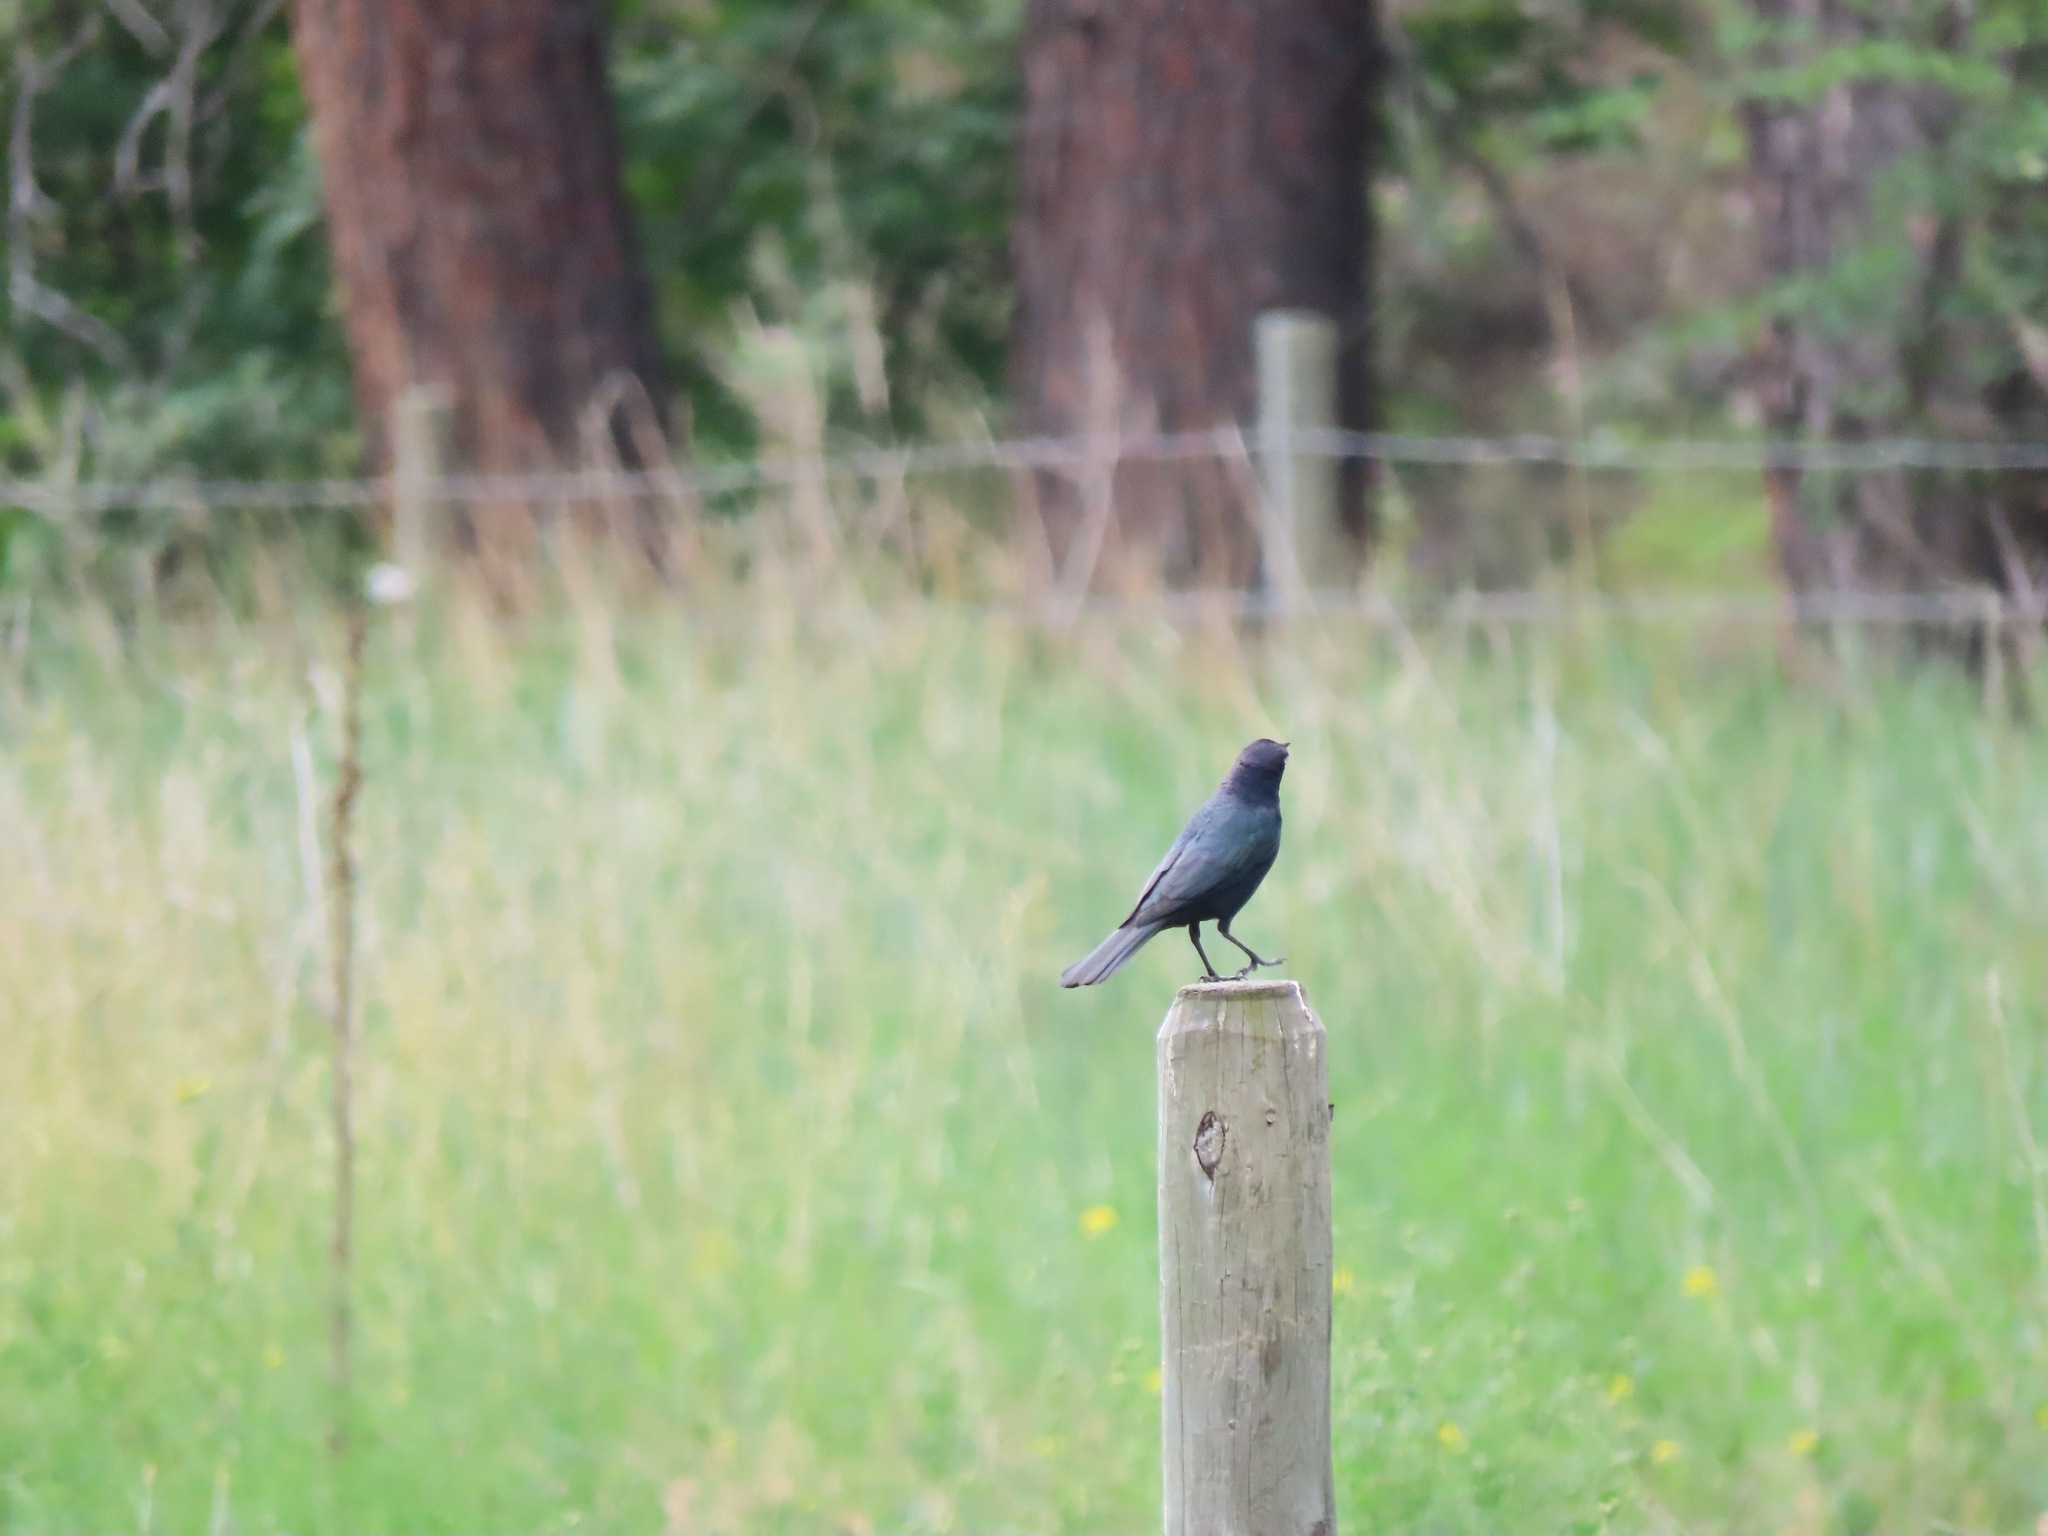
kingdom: Animalia
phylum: Chordata
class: Aves
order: Passeriformes
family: Icteridae
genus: Euphagus
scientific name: Euphagus cyanocephalus
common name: Brewer's blackbird
